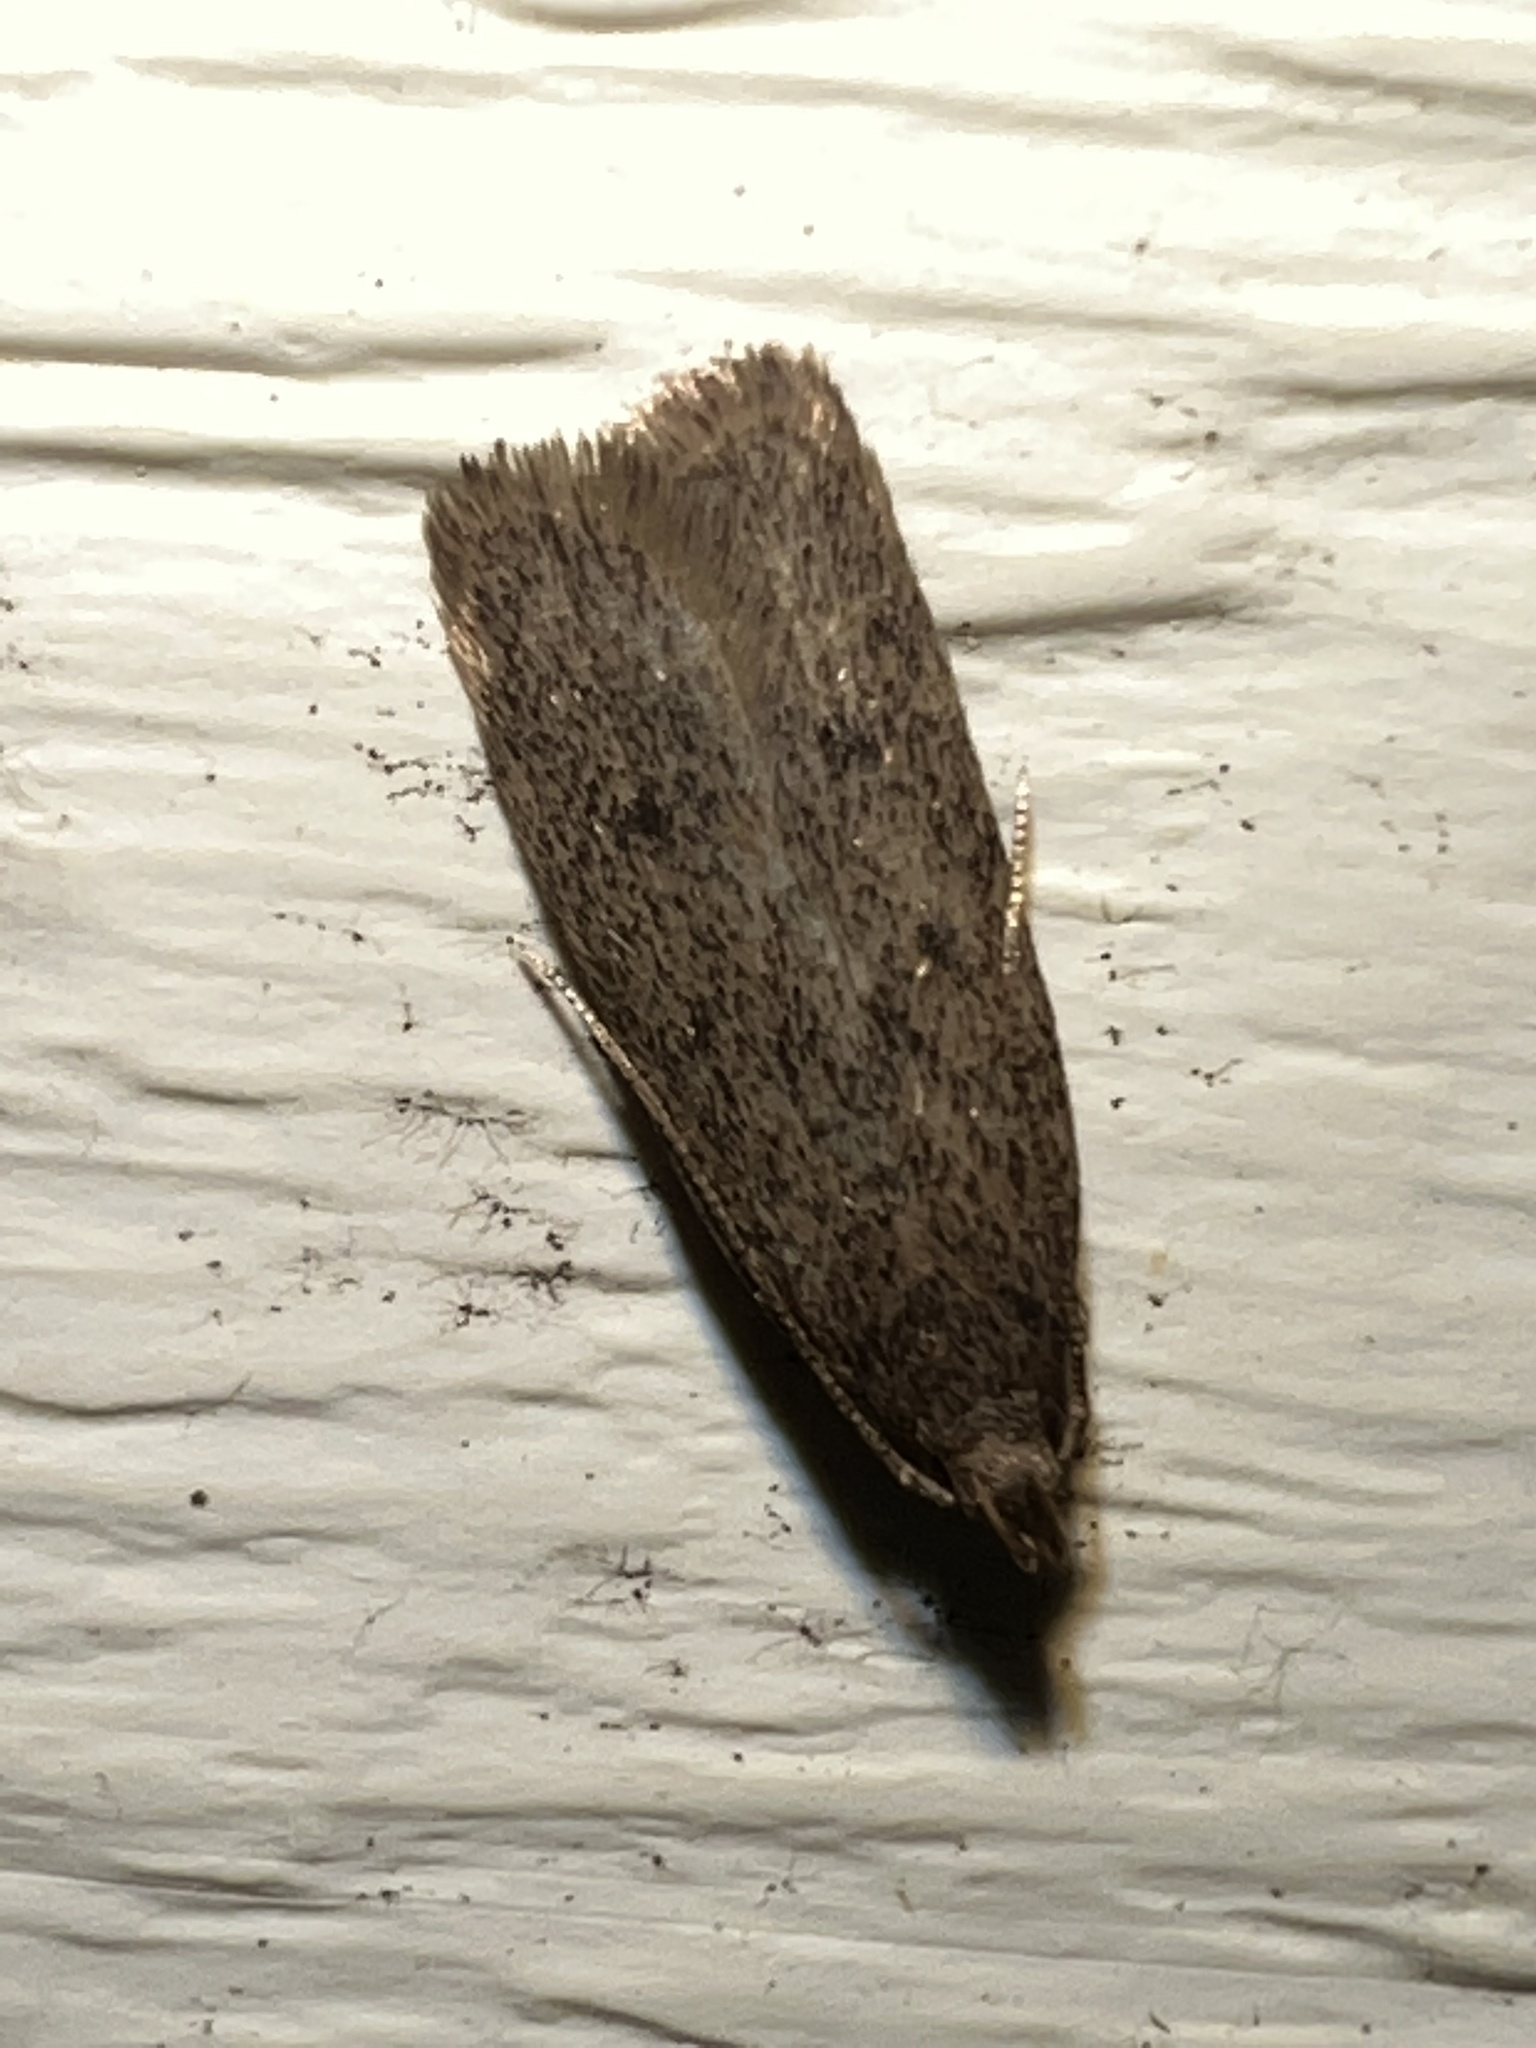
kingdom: Animalia
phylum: Arthropoda
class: Insecta
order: Lepidoptera
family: Autostichidae
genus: Glyphidocera
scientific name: Glyphidocera juniperella
